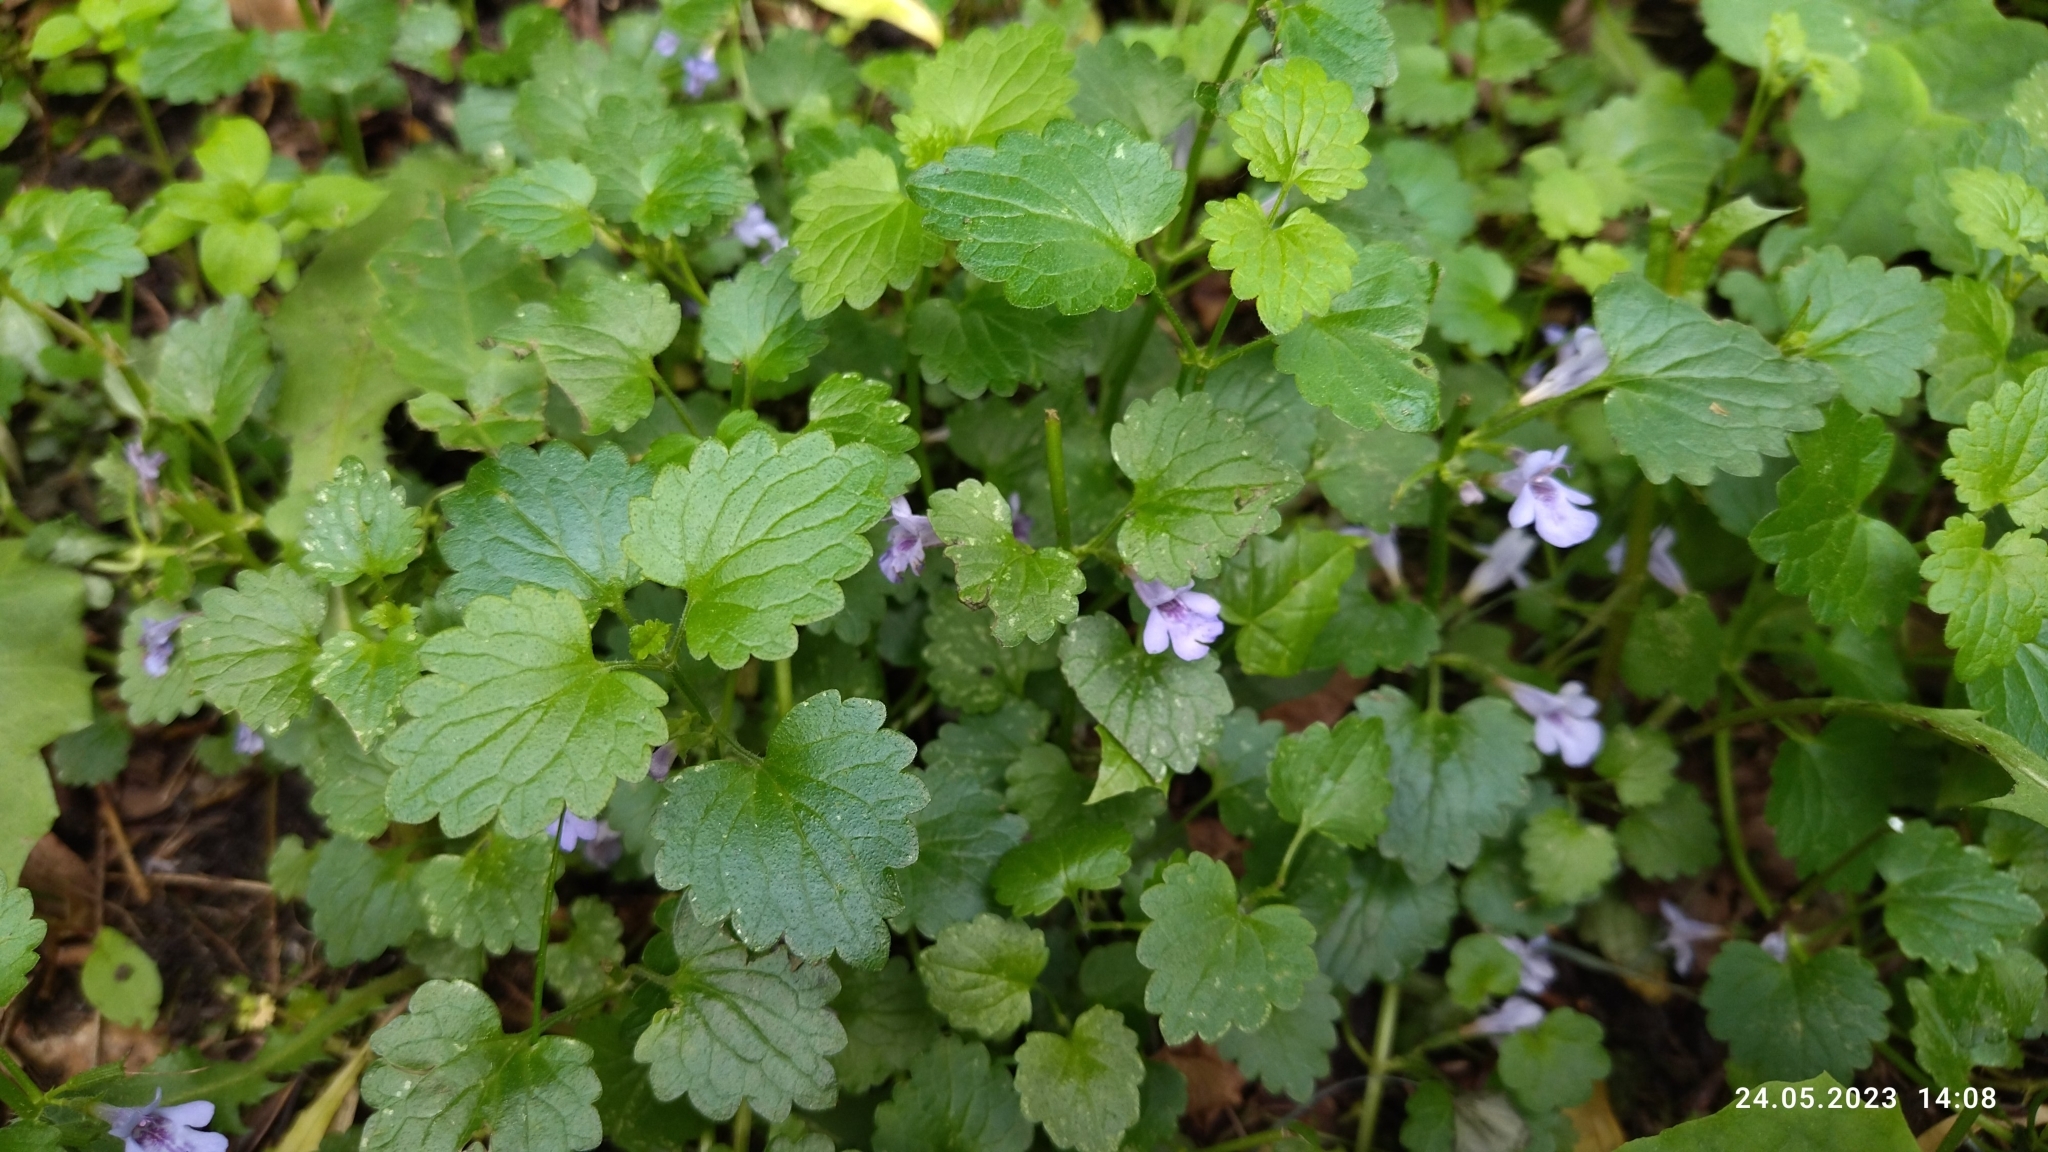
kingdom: Plantae
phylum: Tracheophyta
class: Magnoliopsida
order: Lamiales
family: Lamiaceae
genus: Glechoma
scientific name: Glechoma hederacea
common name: Ground ivy
